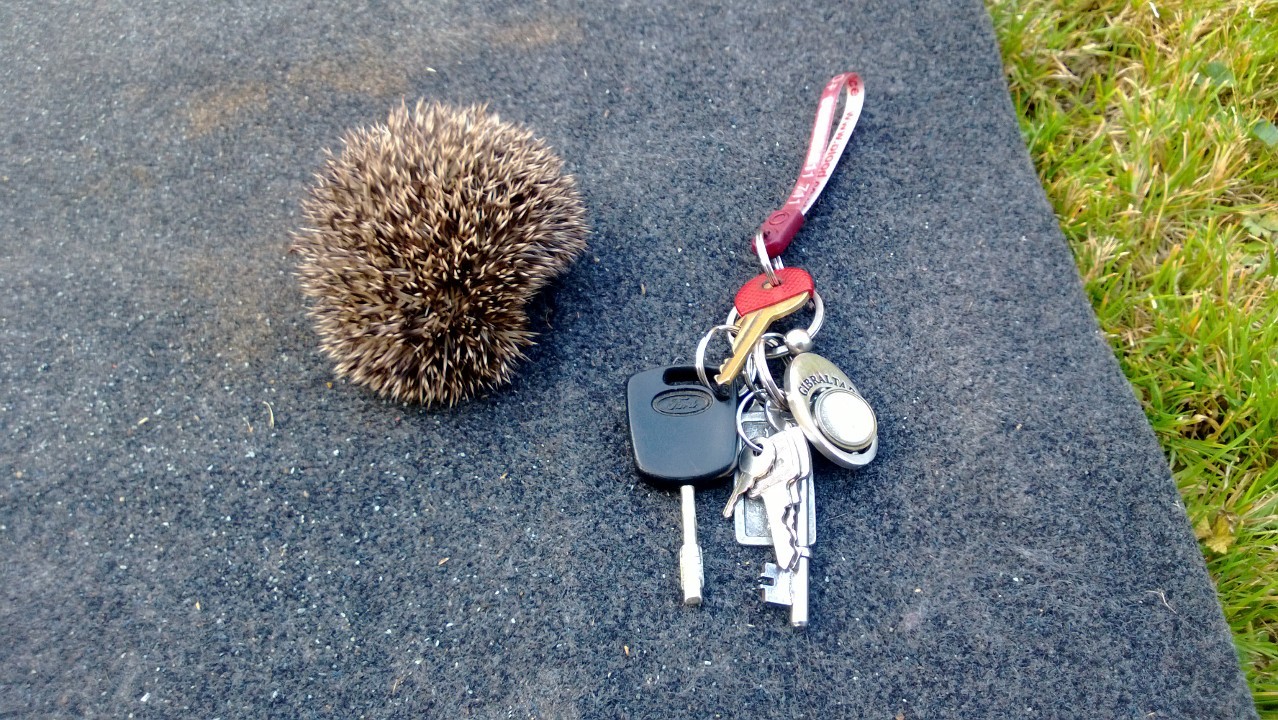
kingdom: Animalia
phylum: Chordata
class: Mammalia
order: Erinaceomorpha
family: Erinaceidae
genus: Erinaceus
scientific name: Erinaceus europaeus
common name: West european hedgehog
